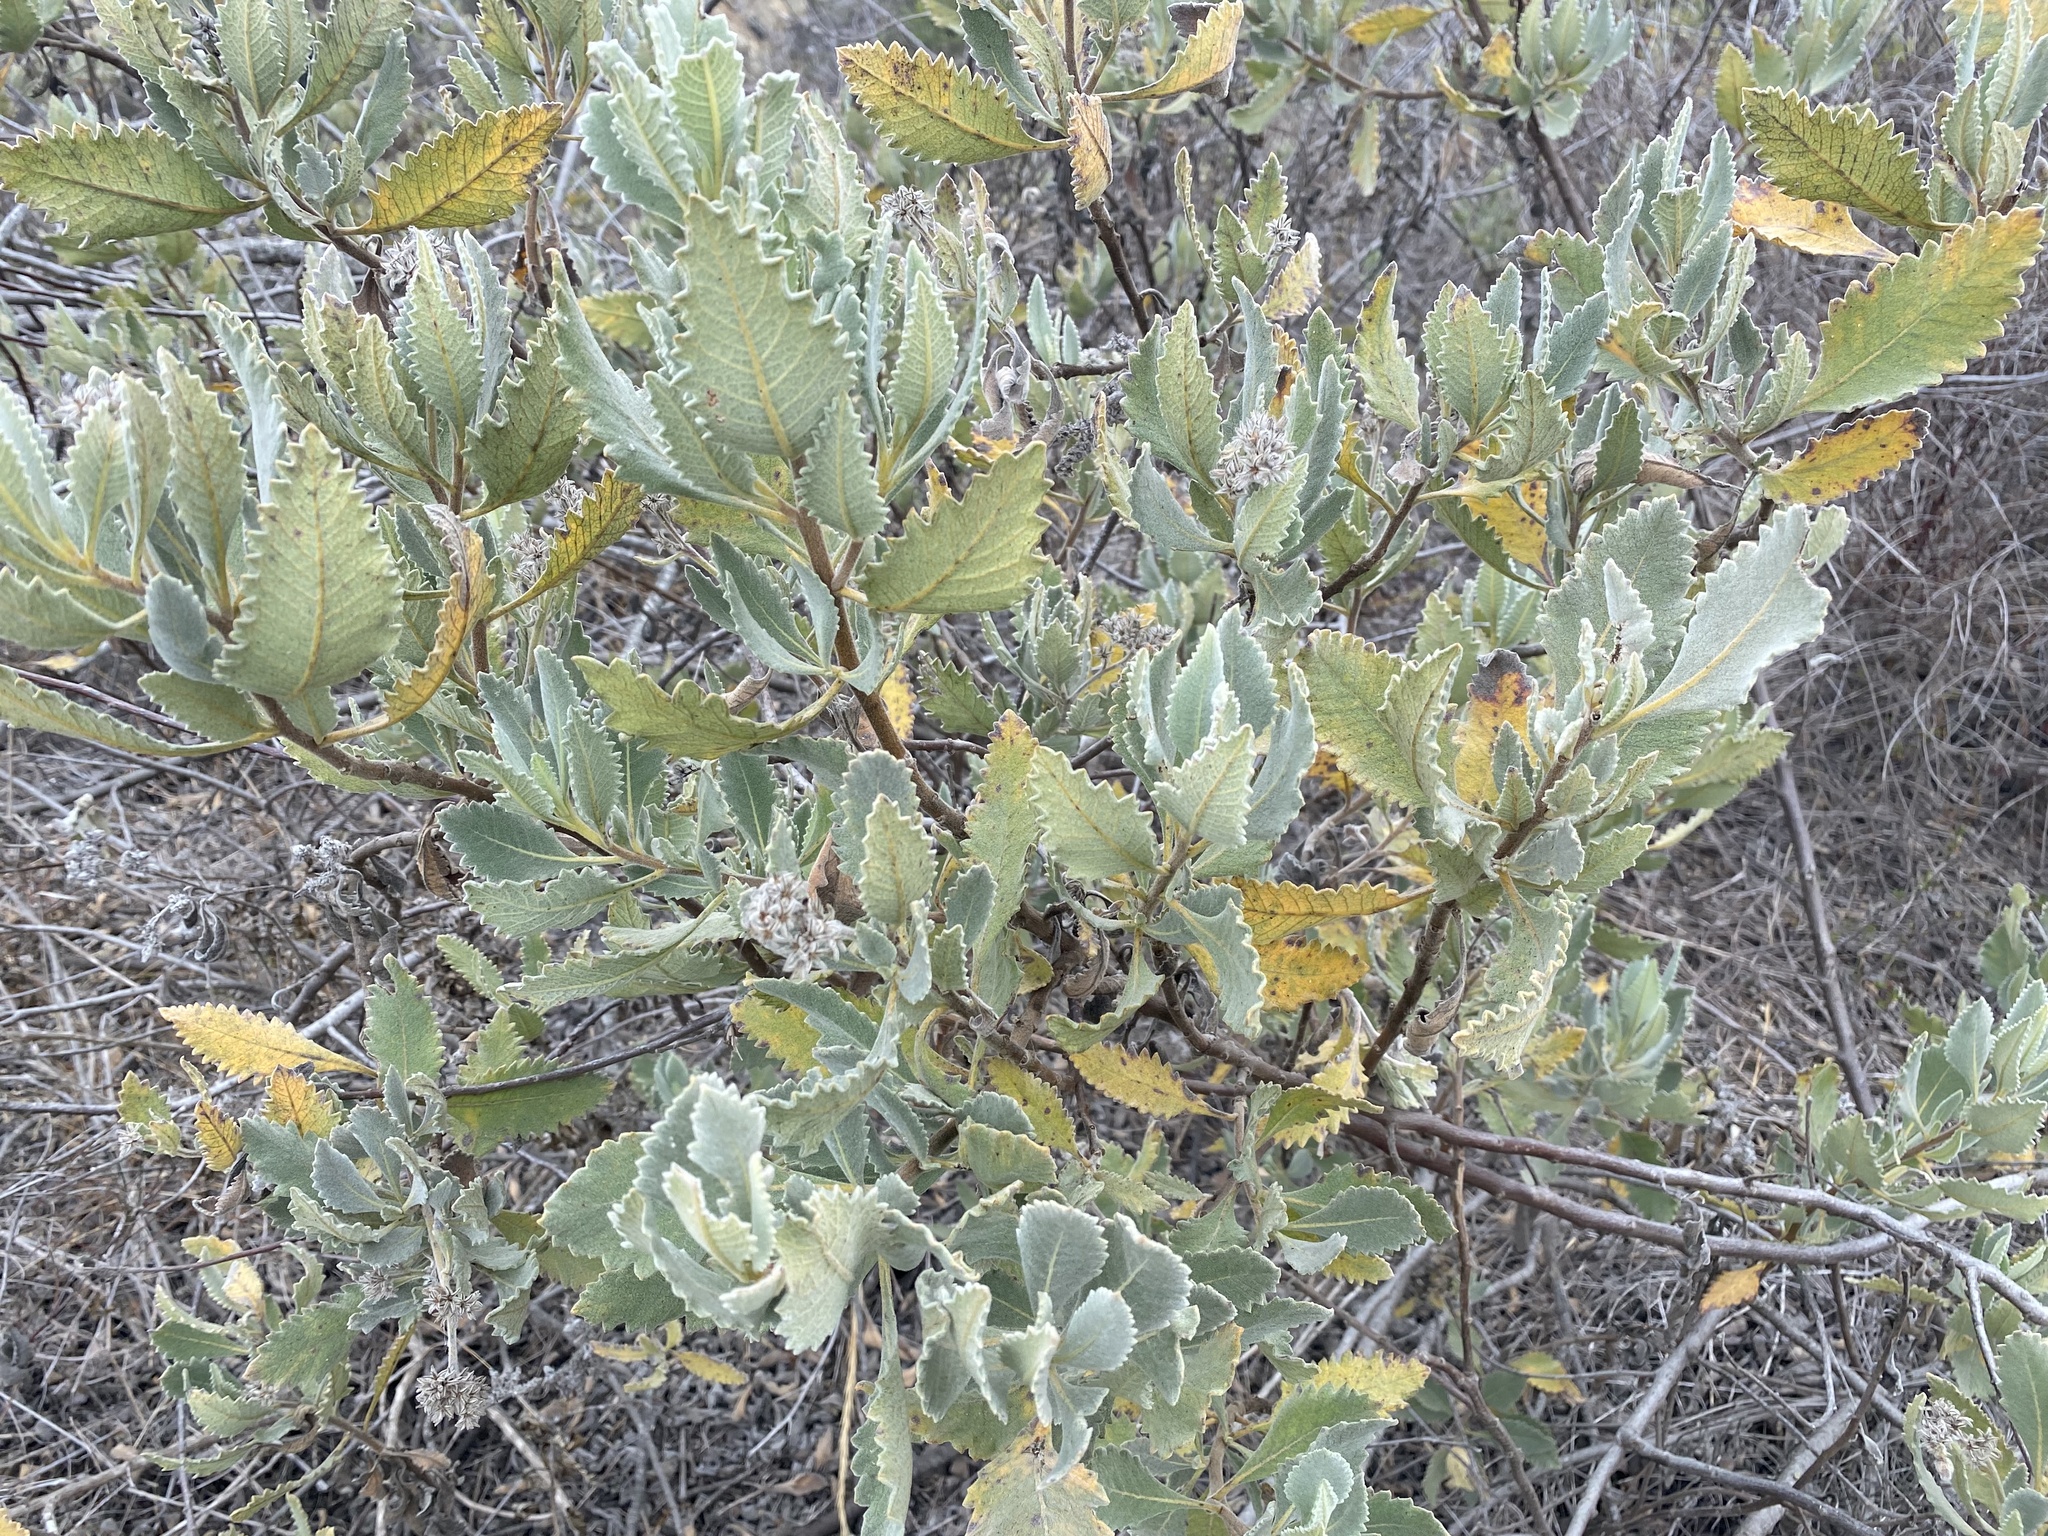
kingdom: Plantae
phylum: Tracheophyta
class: Magnoliopsida
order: Boraginales
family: Namaceae
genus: Eriodictyon
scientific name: Eriodictyon crassifolium
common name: Thick-leaf yerba-santa
